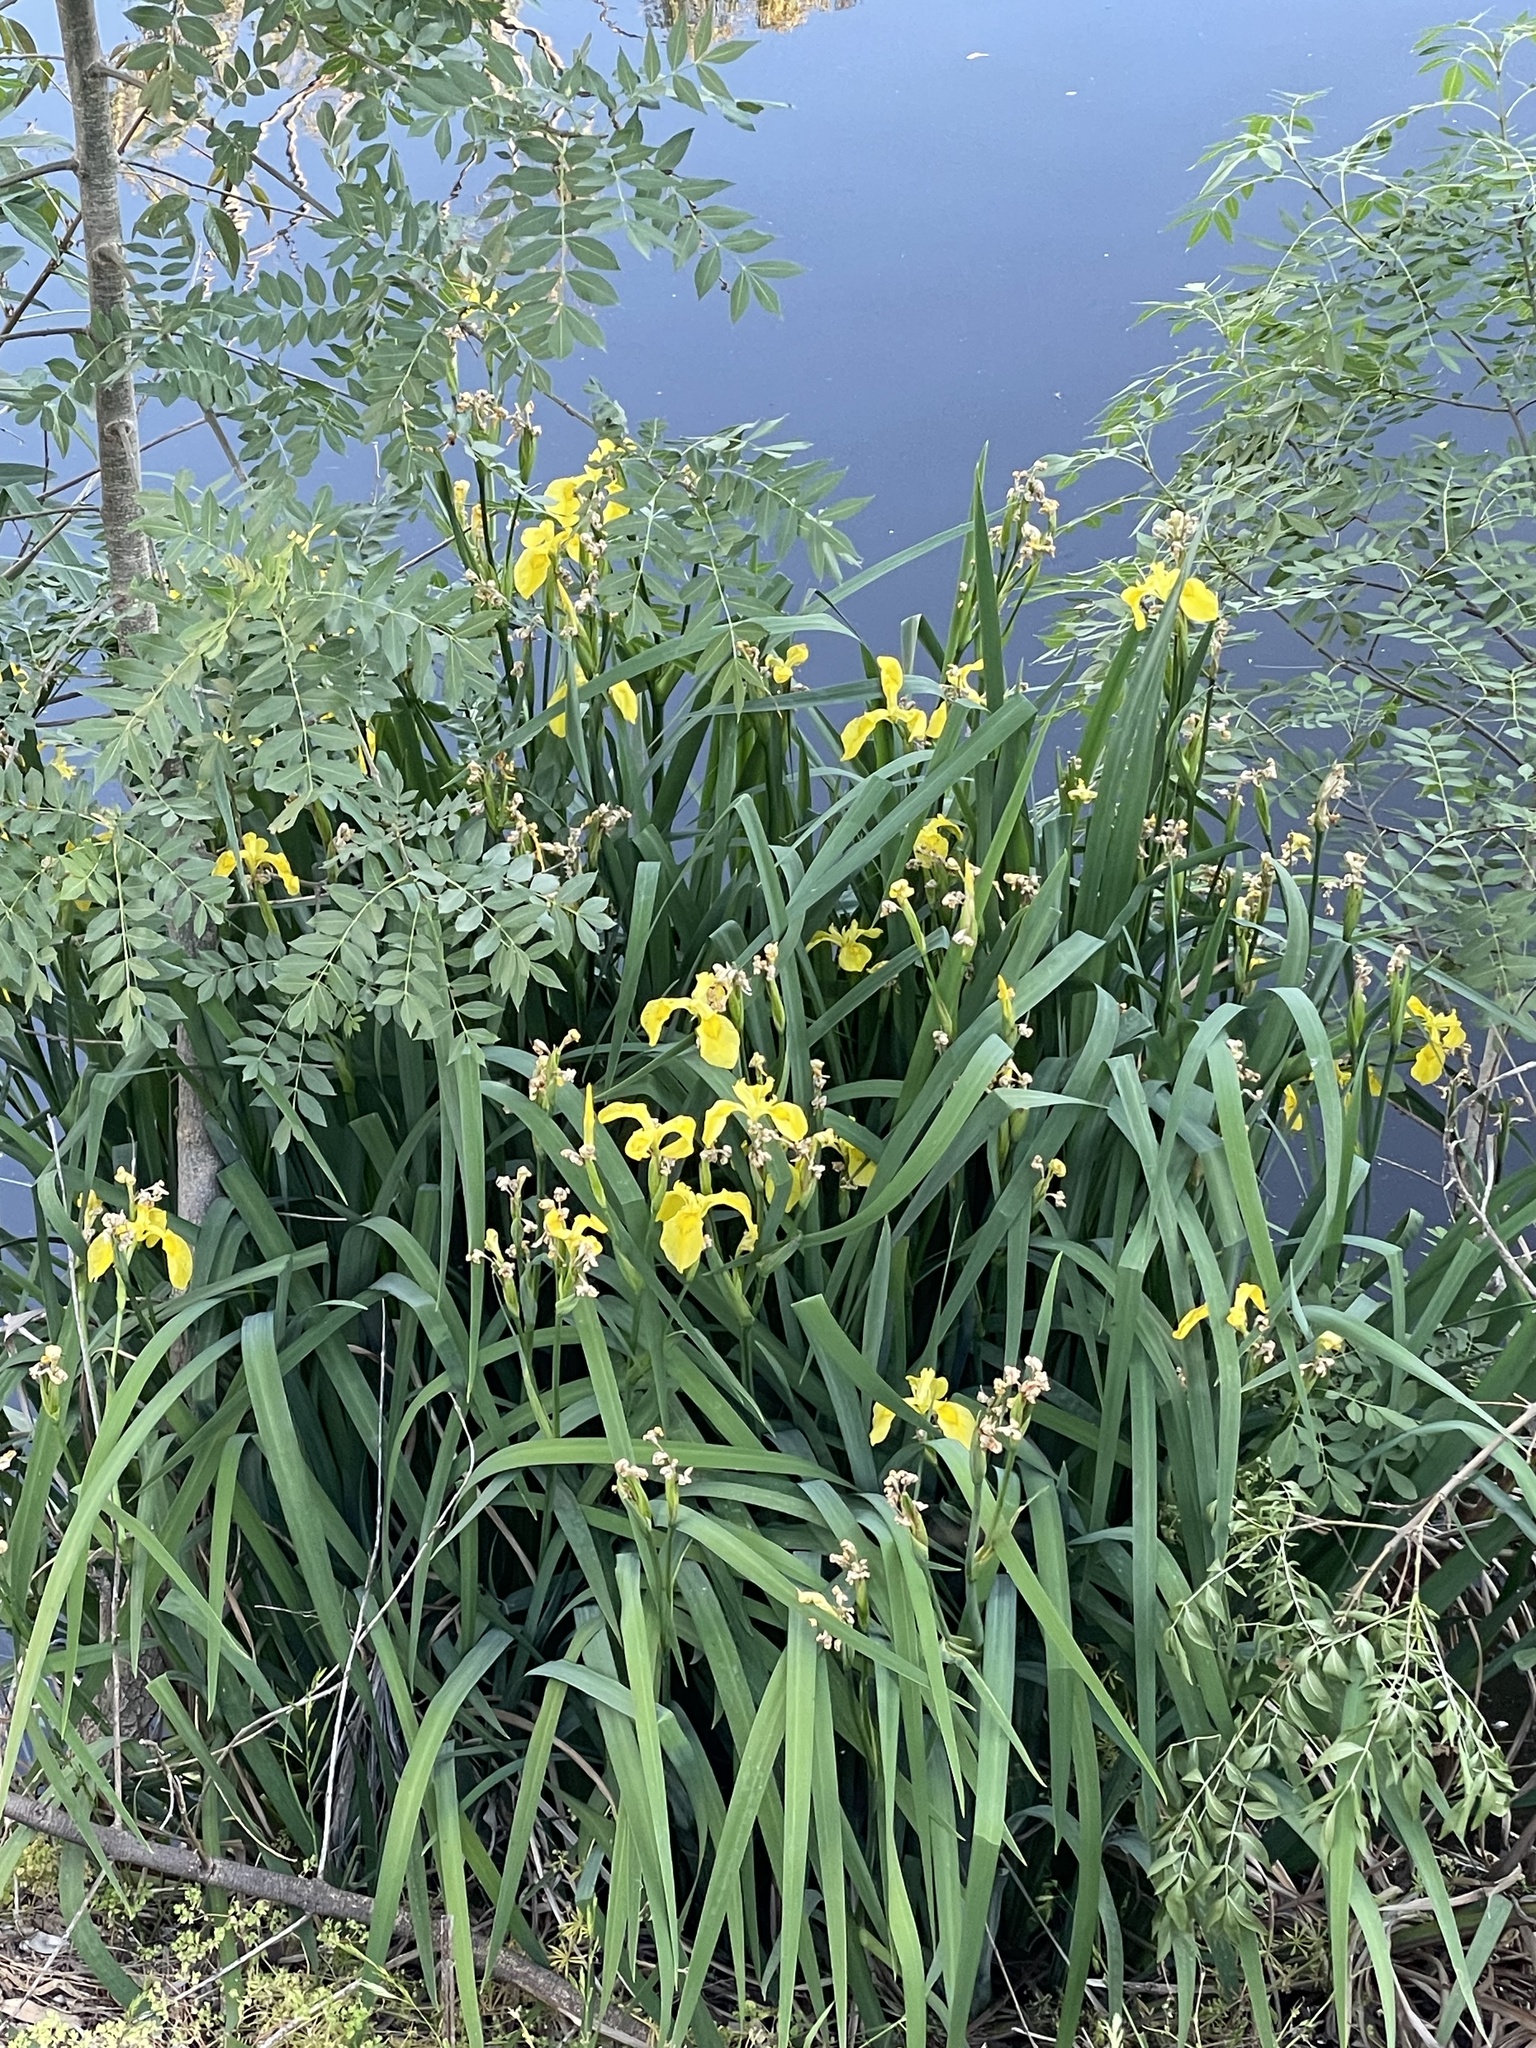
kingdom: Plantae
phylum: Tracheophyta
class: Liliopsida
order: Asparagales
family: Iridaceae
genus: Iris
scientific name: Iris pseudacorus
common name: Yellow flag
